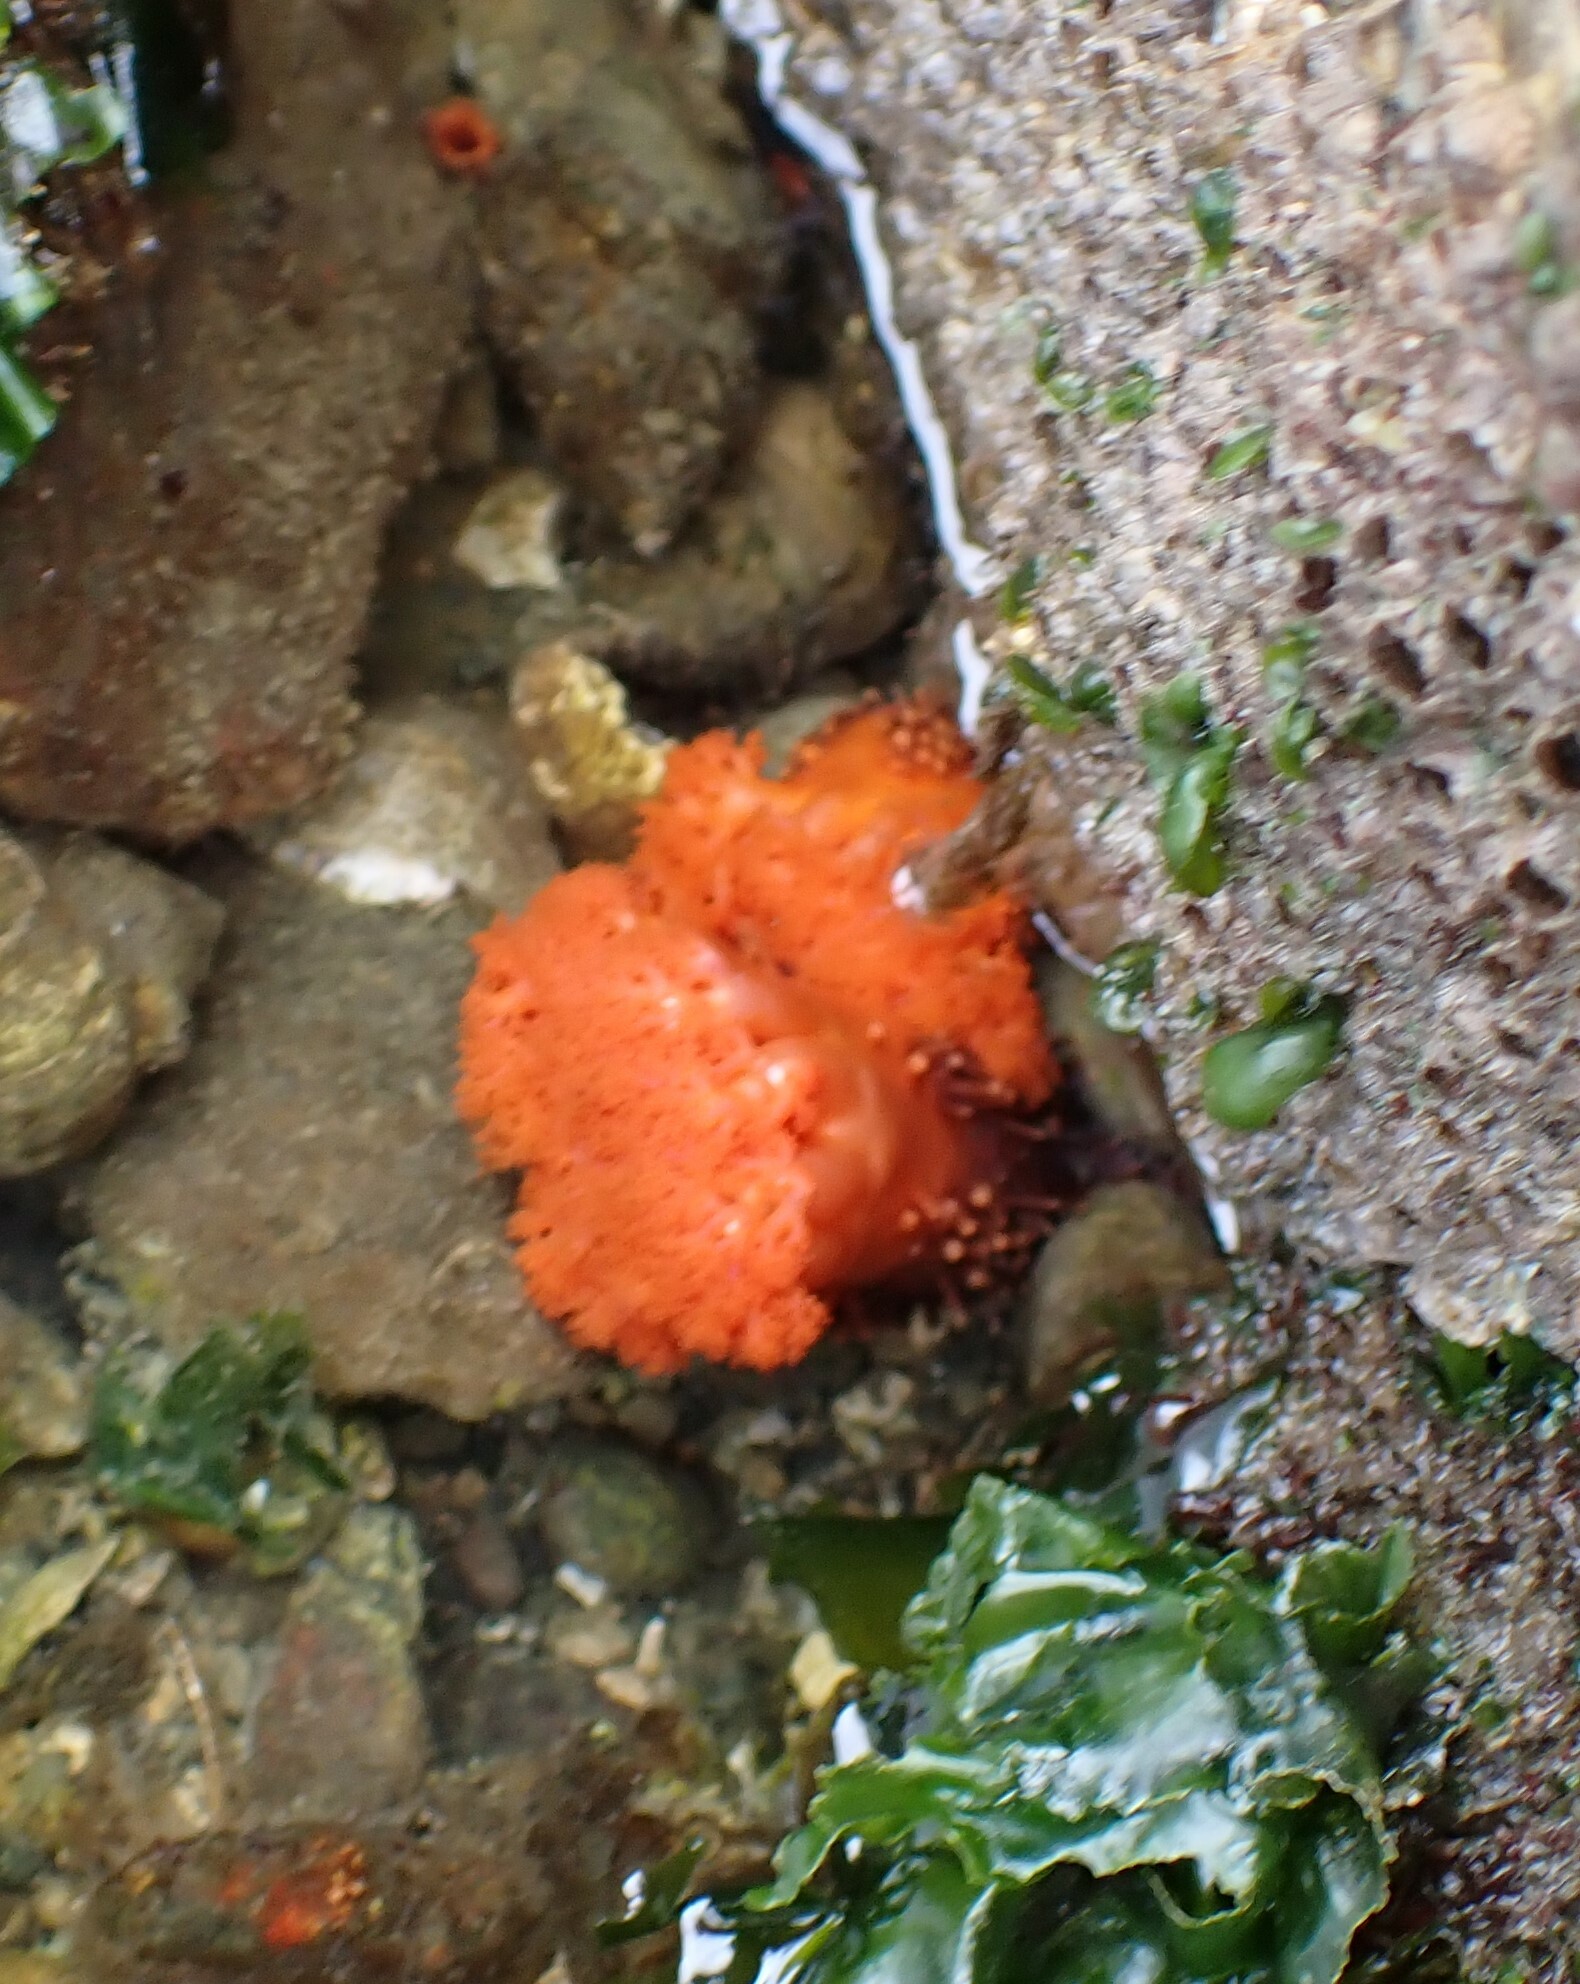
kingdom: Animalia
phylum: Echinodermata
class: Holothuroidea
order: Dendrochirotida
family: Cucumariidae
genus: Cucumaria
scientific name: Cucumaria miniata
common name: Orange sea cucumber
